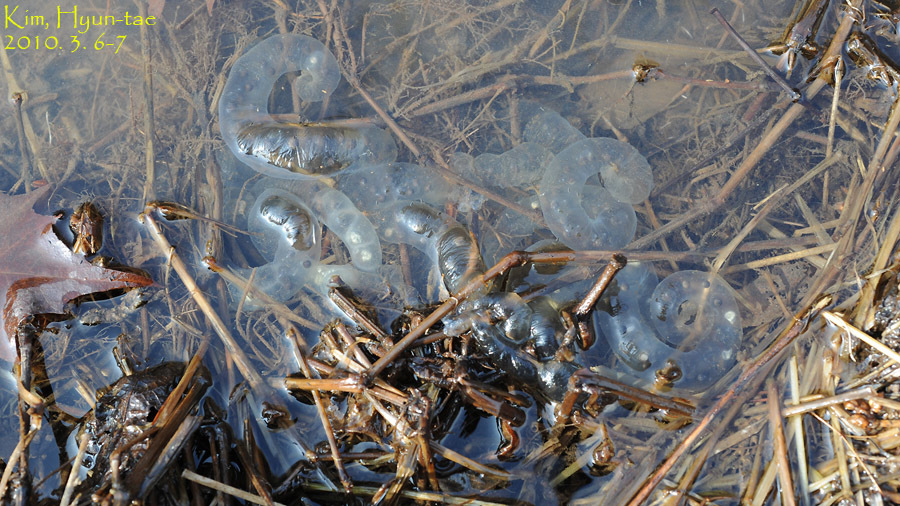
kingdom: Animalia
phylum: Chordata
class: Amphibia
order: Caudata
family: Hynobiidae
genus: Hynobius
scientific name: Hynobius leechii
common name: Gensan salamander
